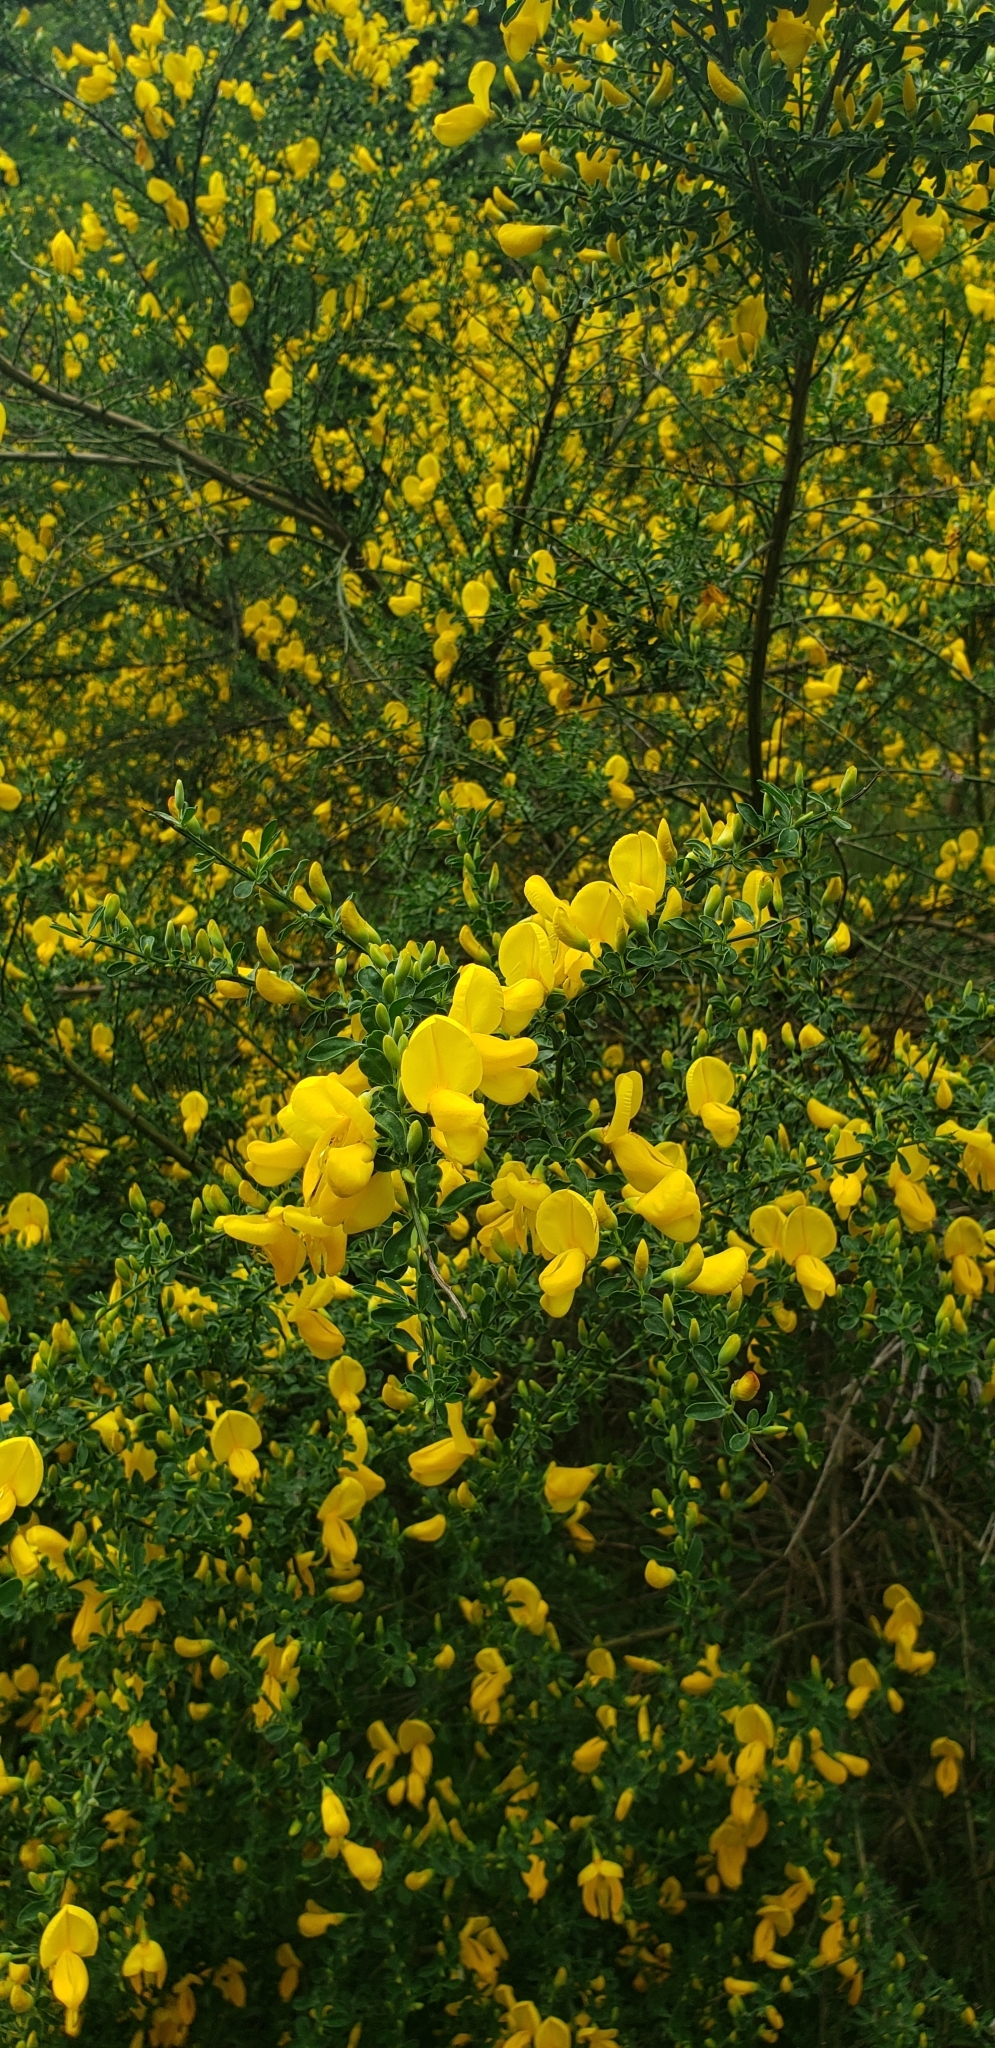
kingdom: Plantae
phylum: Tracheophyta
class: Magnoliopsida
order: Fabales
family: Fabaceae
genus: Cytisus
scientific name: Cytisus scoparius
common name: Scotch broom
